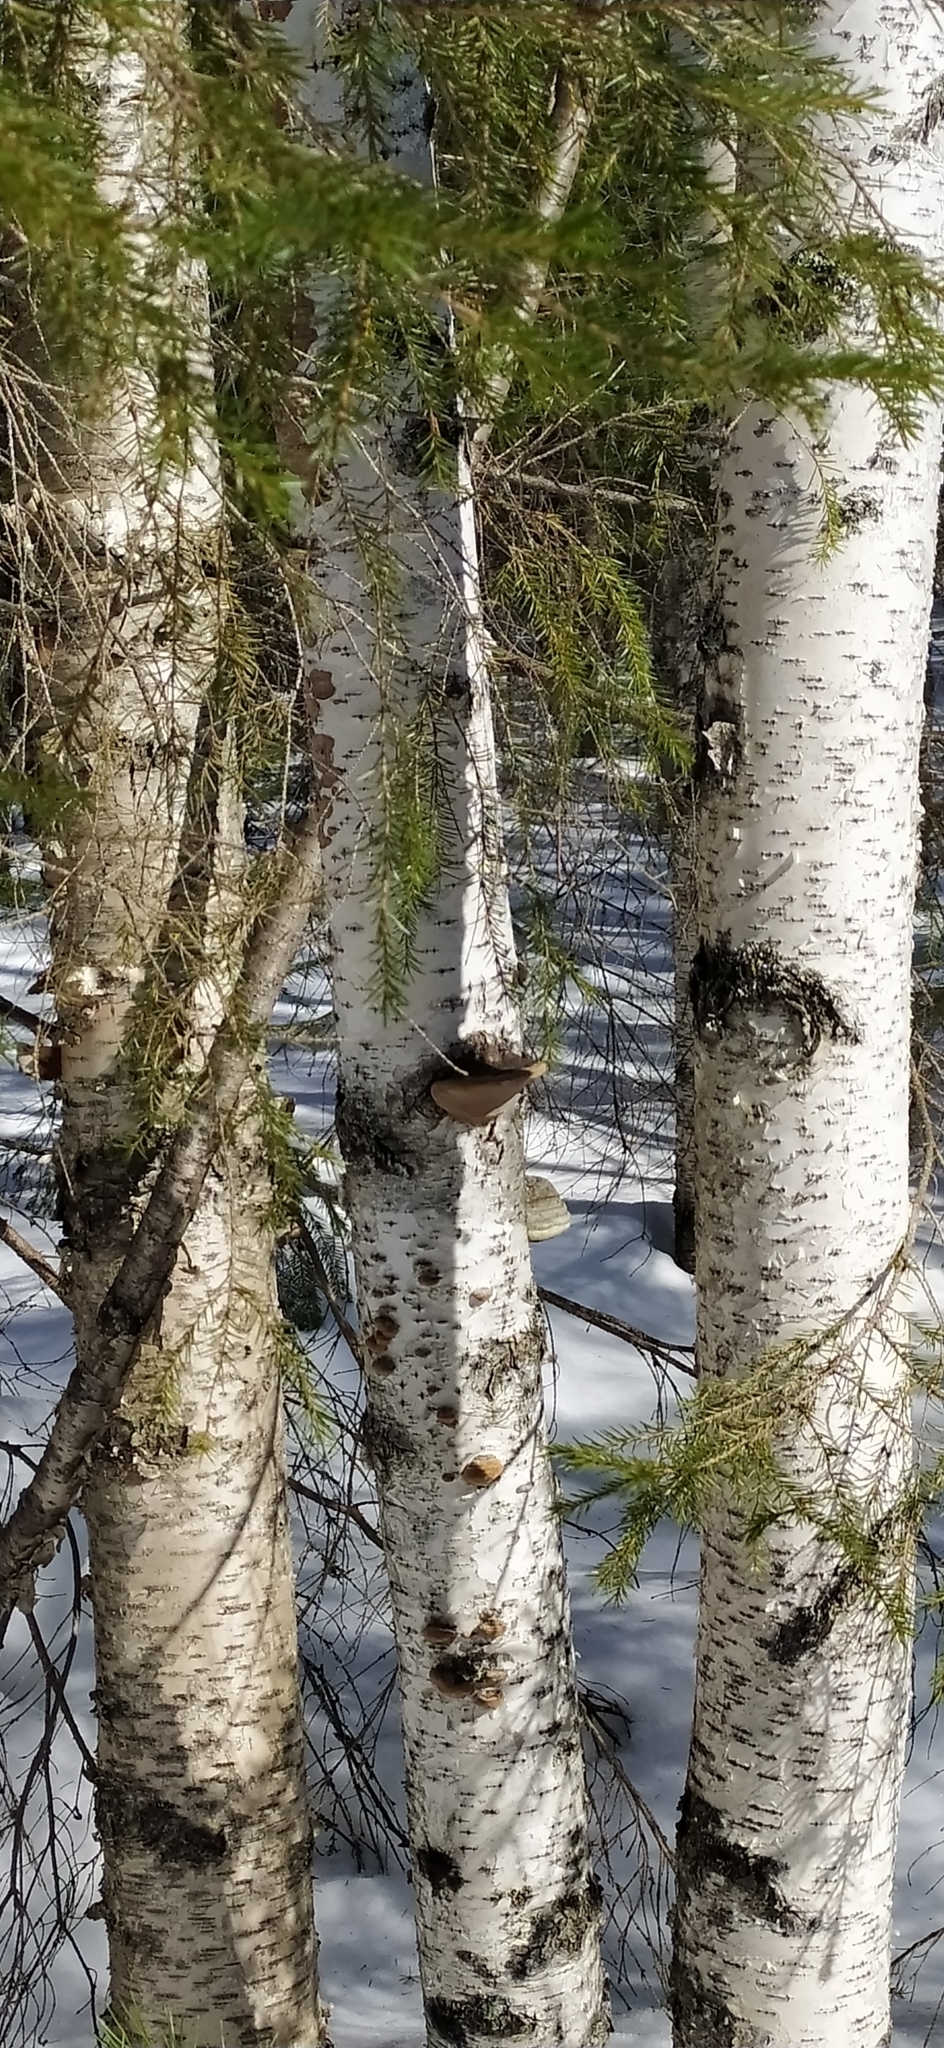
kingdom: Fungi
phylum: Basidiomycota
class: Agaricomycetes
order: Polyporales
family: Polyporaceae
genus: Fomes
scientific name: Fomes fomentarius
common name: Hoof fungus
